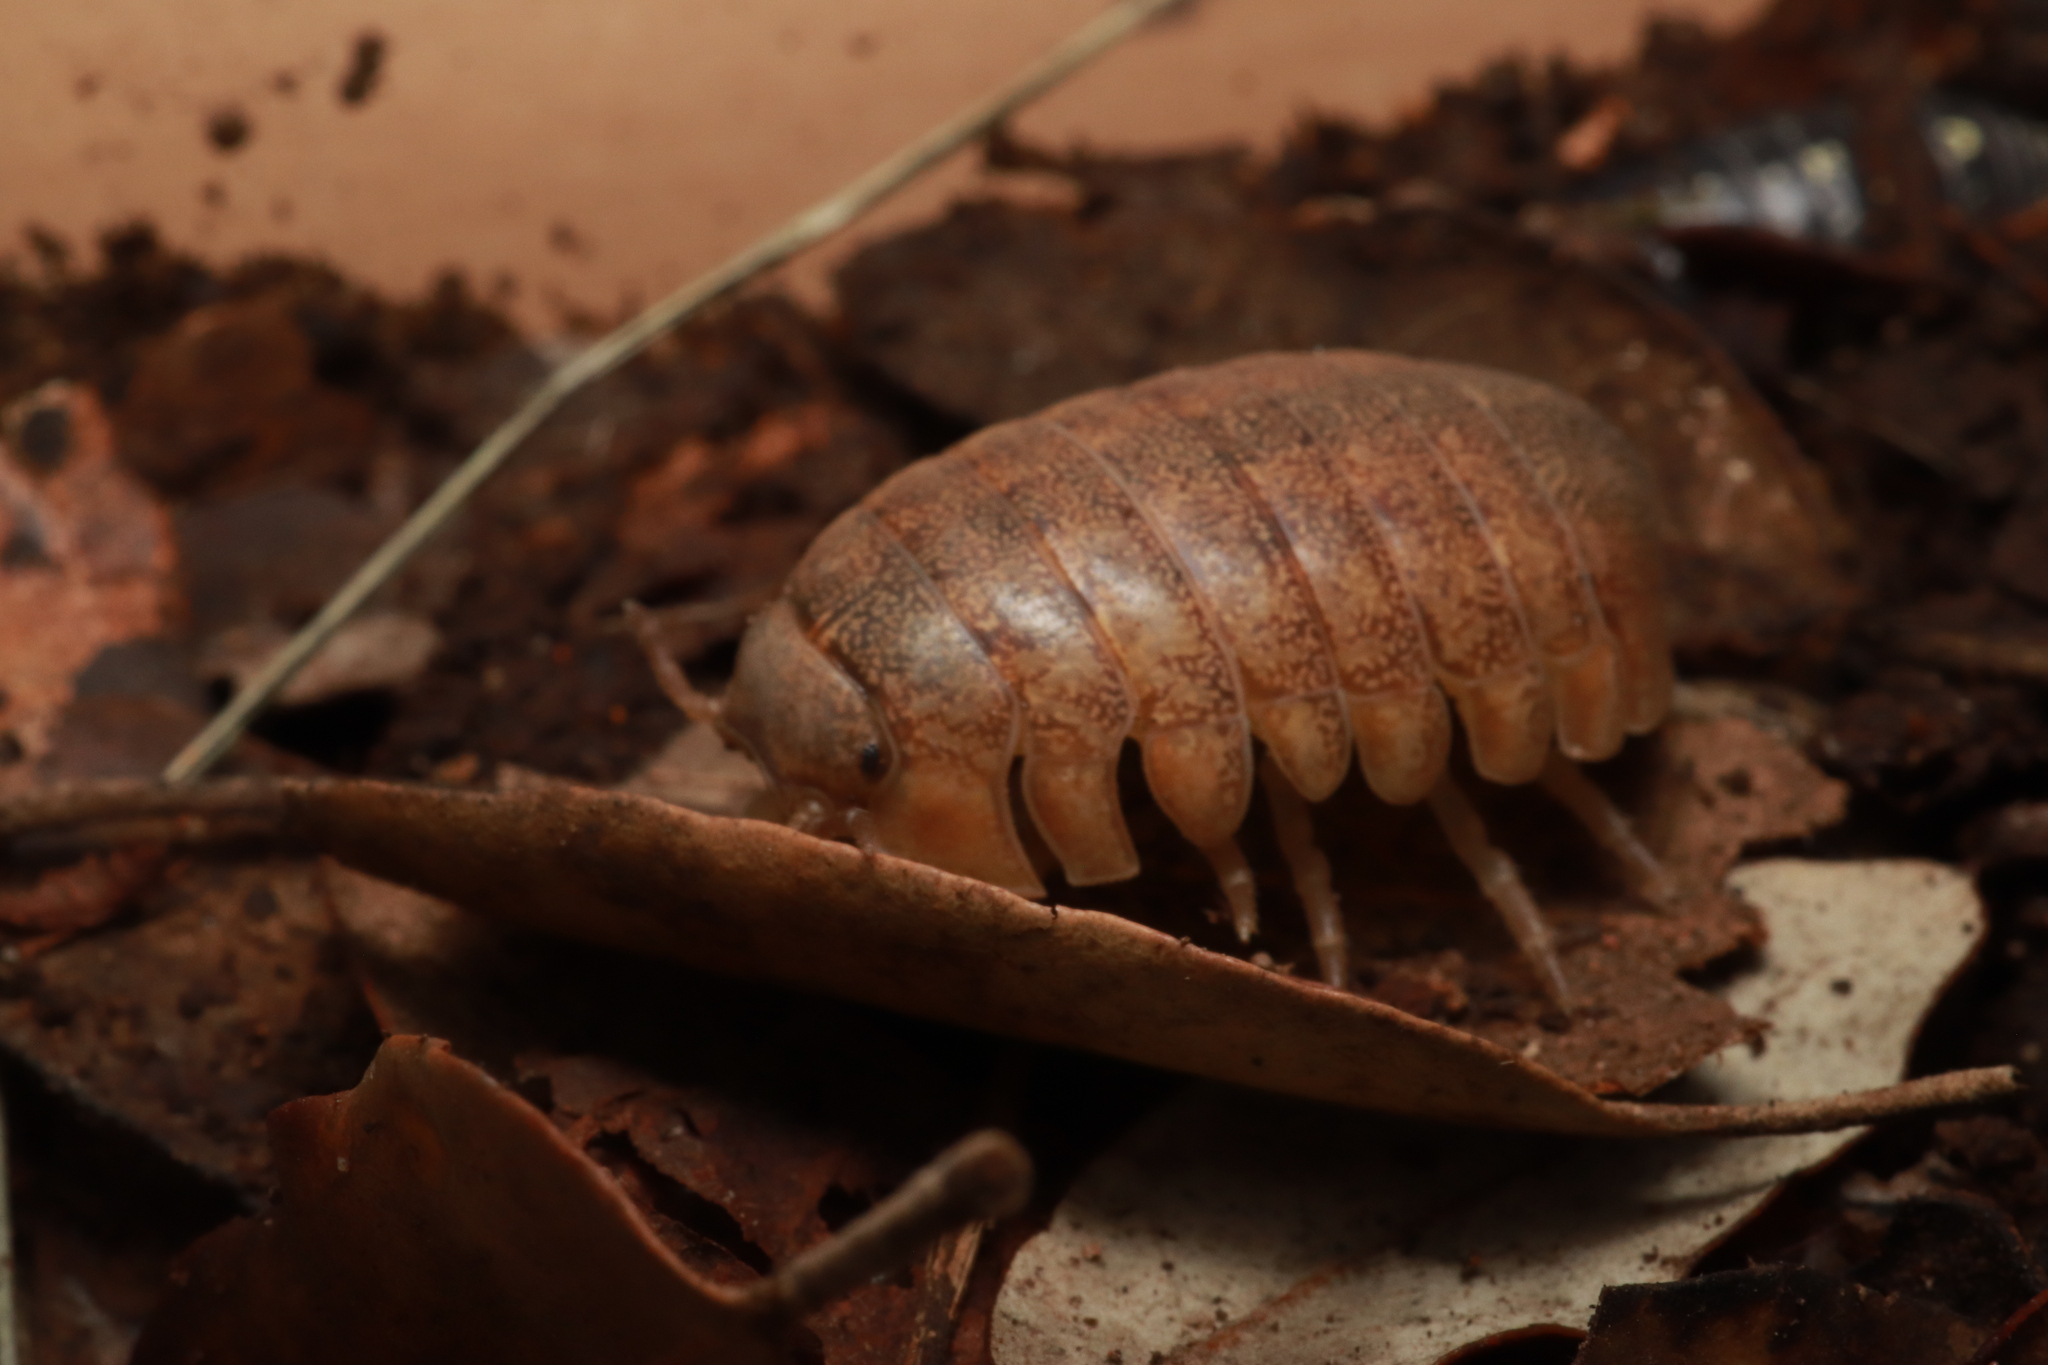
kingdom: Animalia
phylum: Arthropoda
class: Malacostraca
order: Isopoda
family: Tylidae
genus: Helleria
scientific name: Helleria brevicornis
